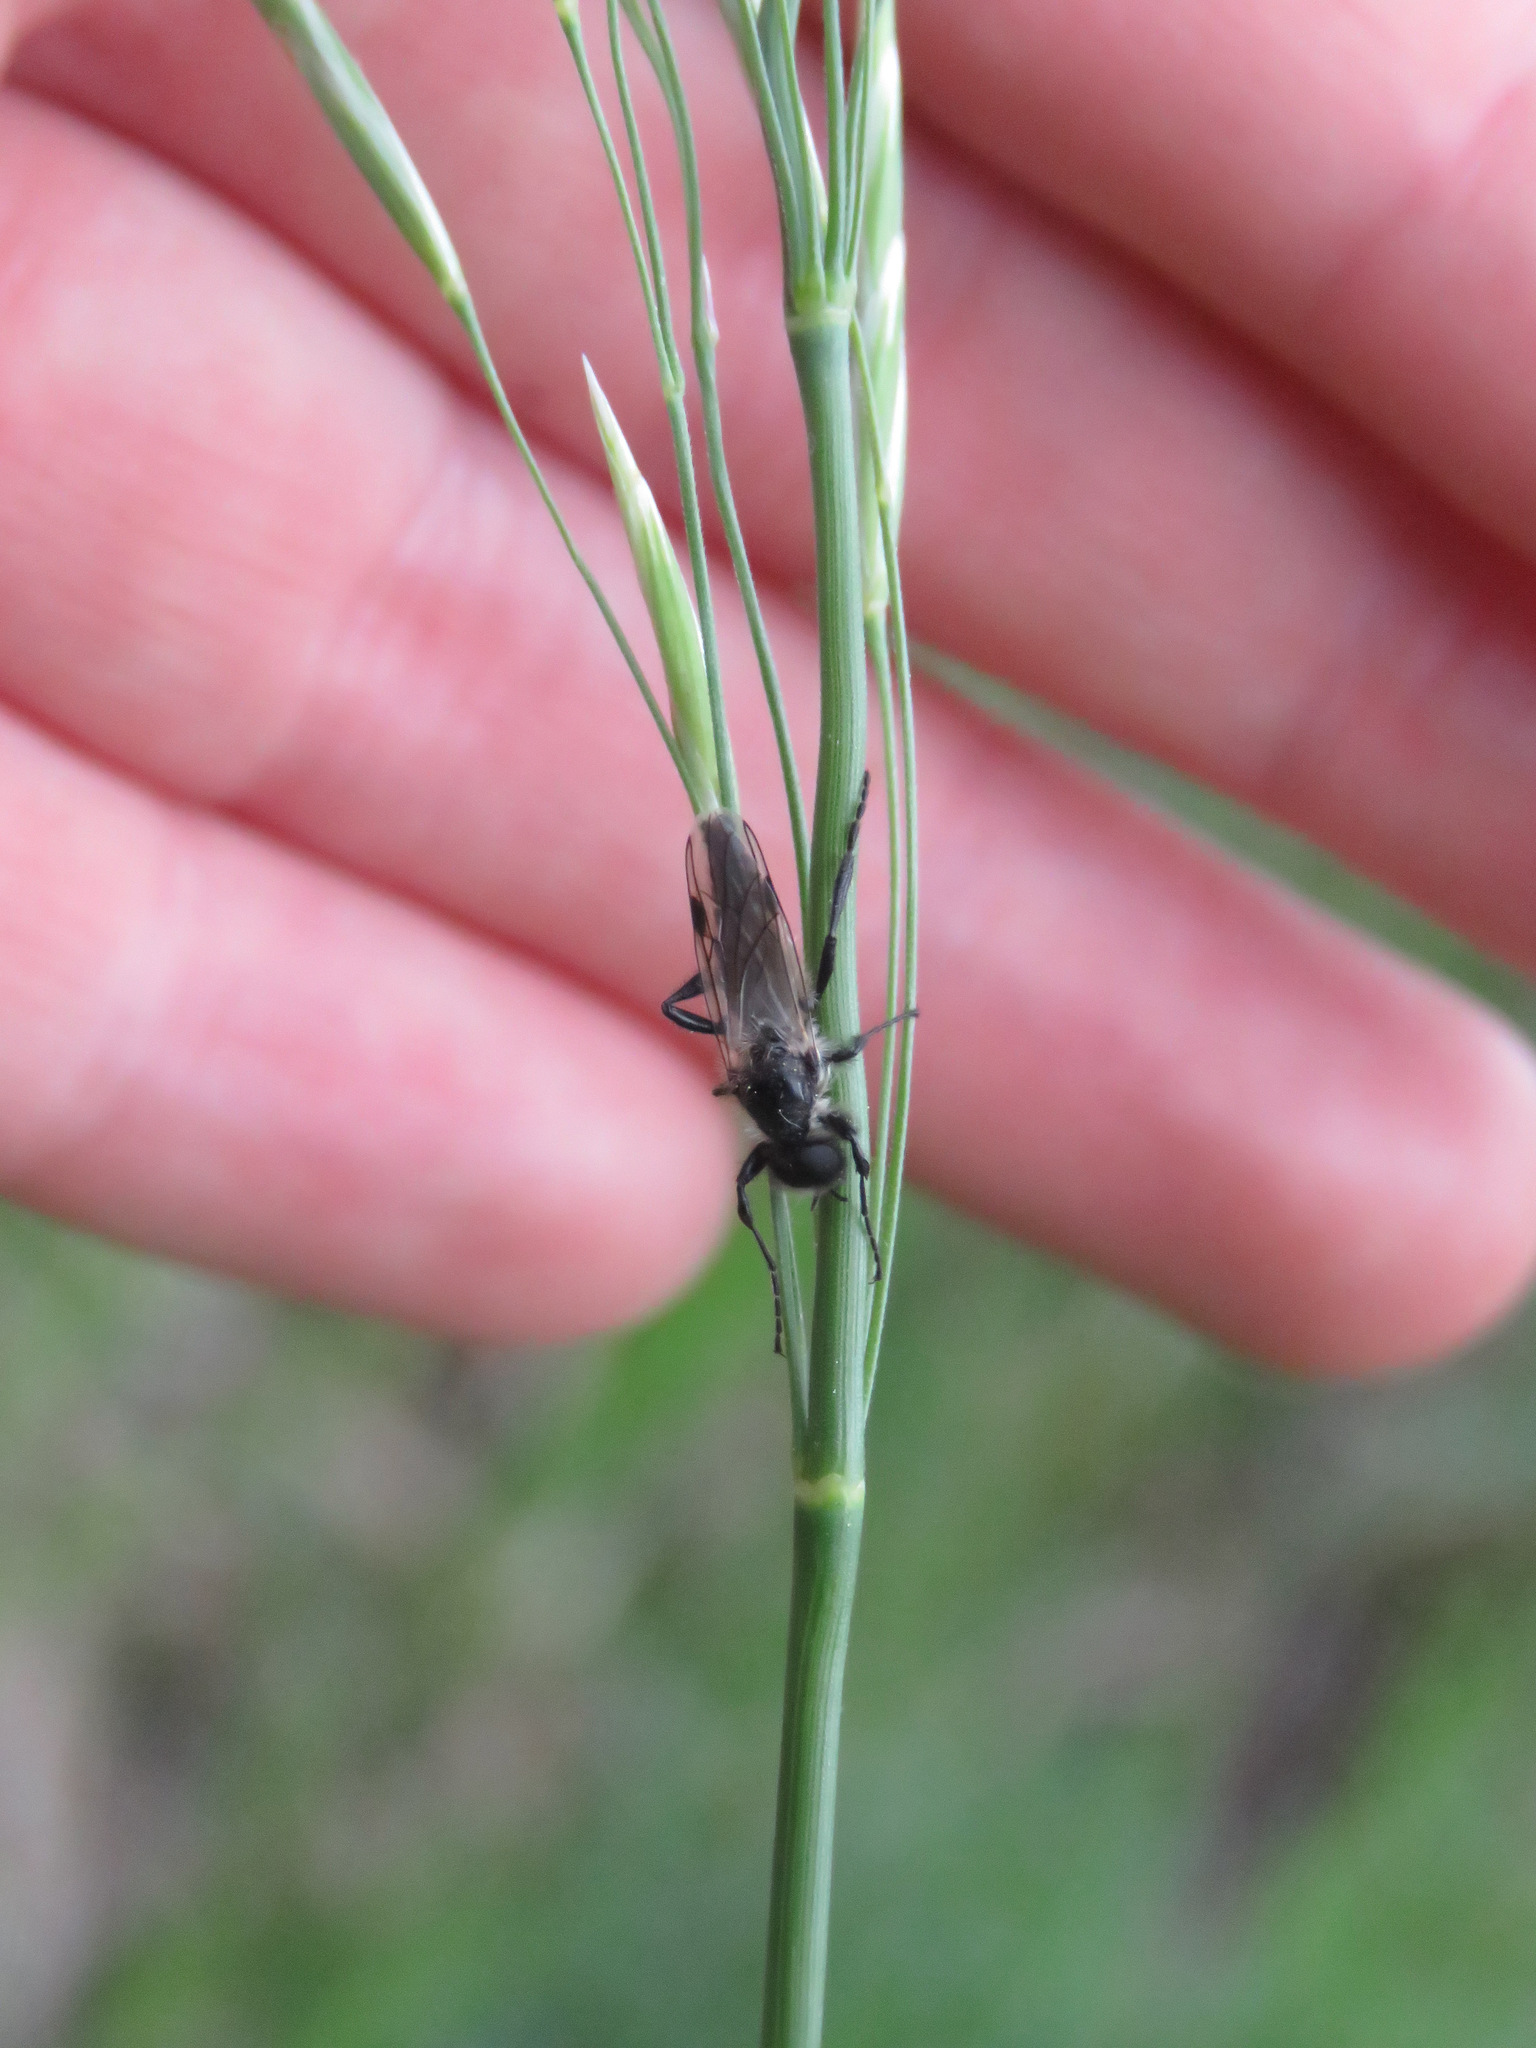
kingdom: Animalia
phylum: Arthropoda
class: Insecta
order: Diptera
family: Bibionidae
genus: Bibio
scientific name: Bibio albipennis
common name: White-winged march fly
